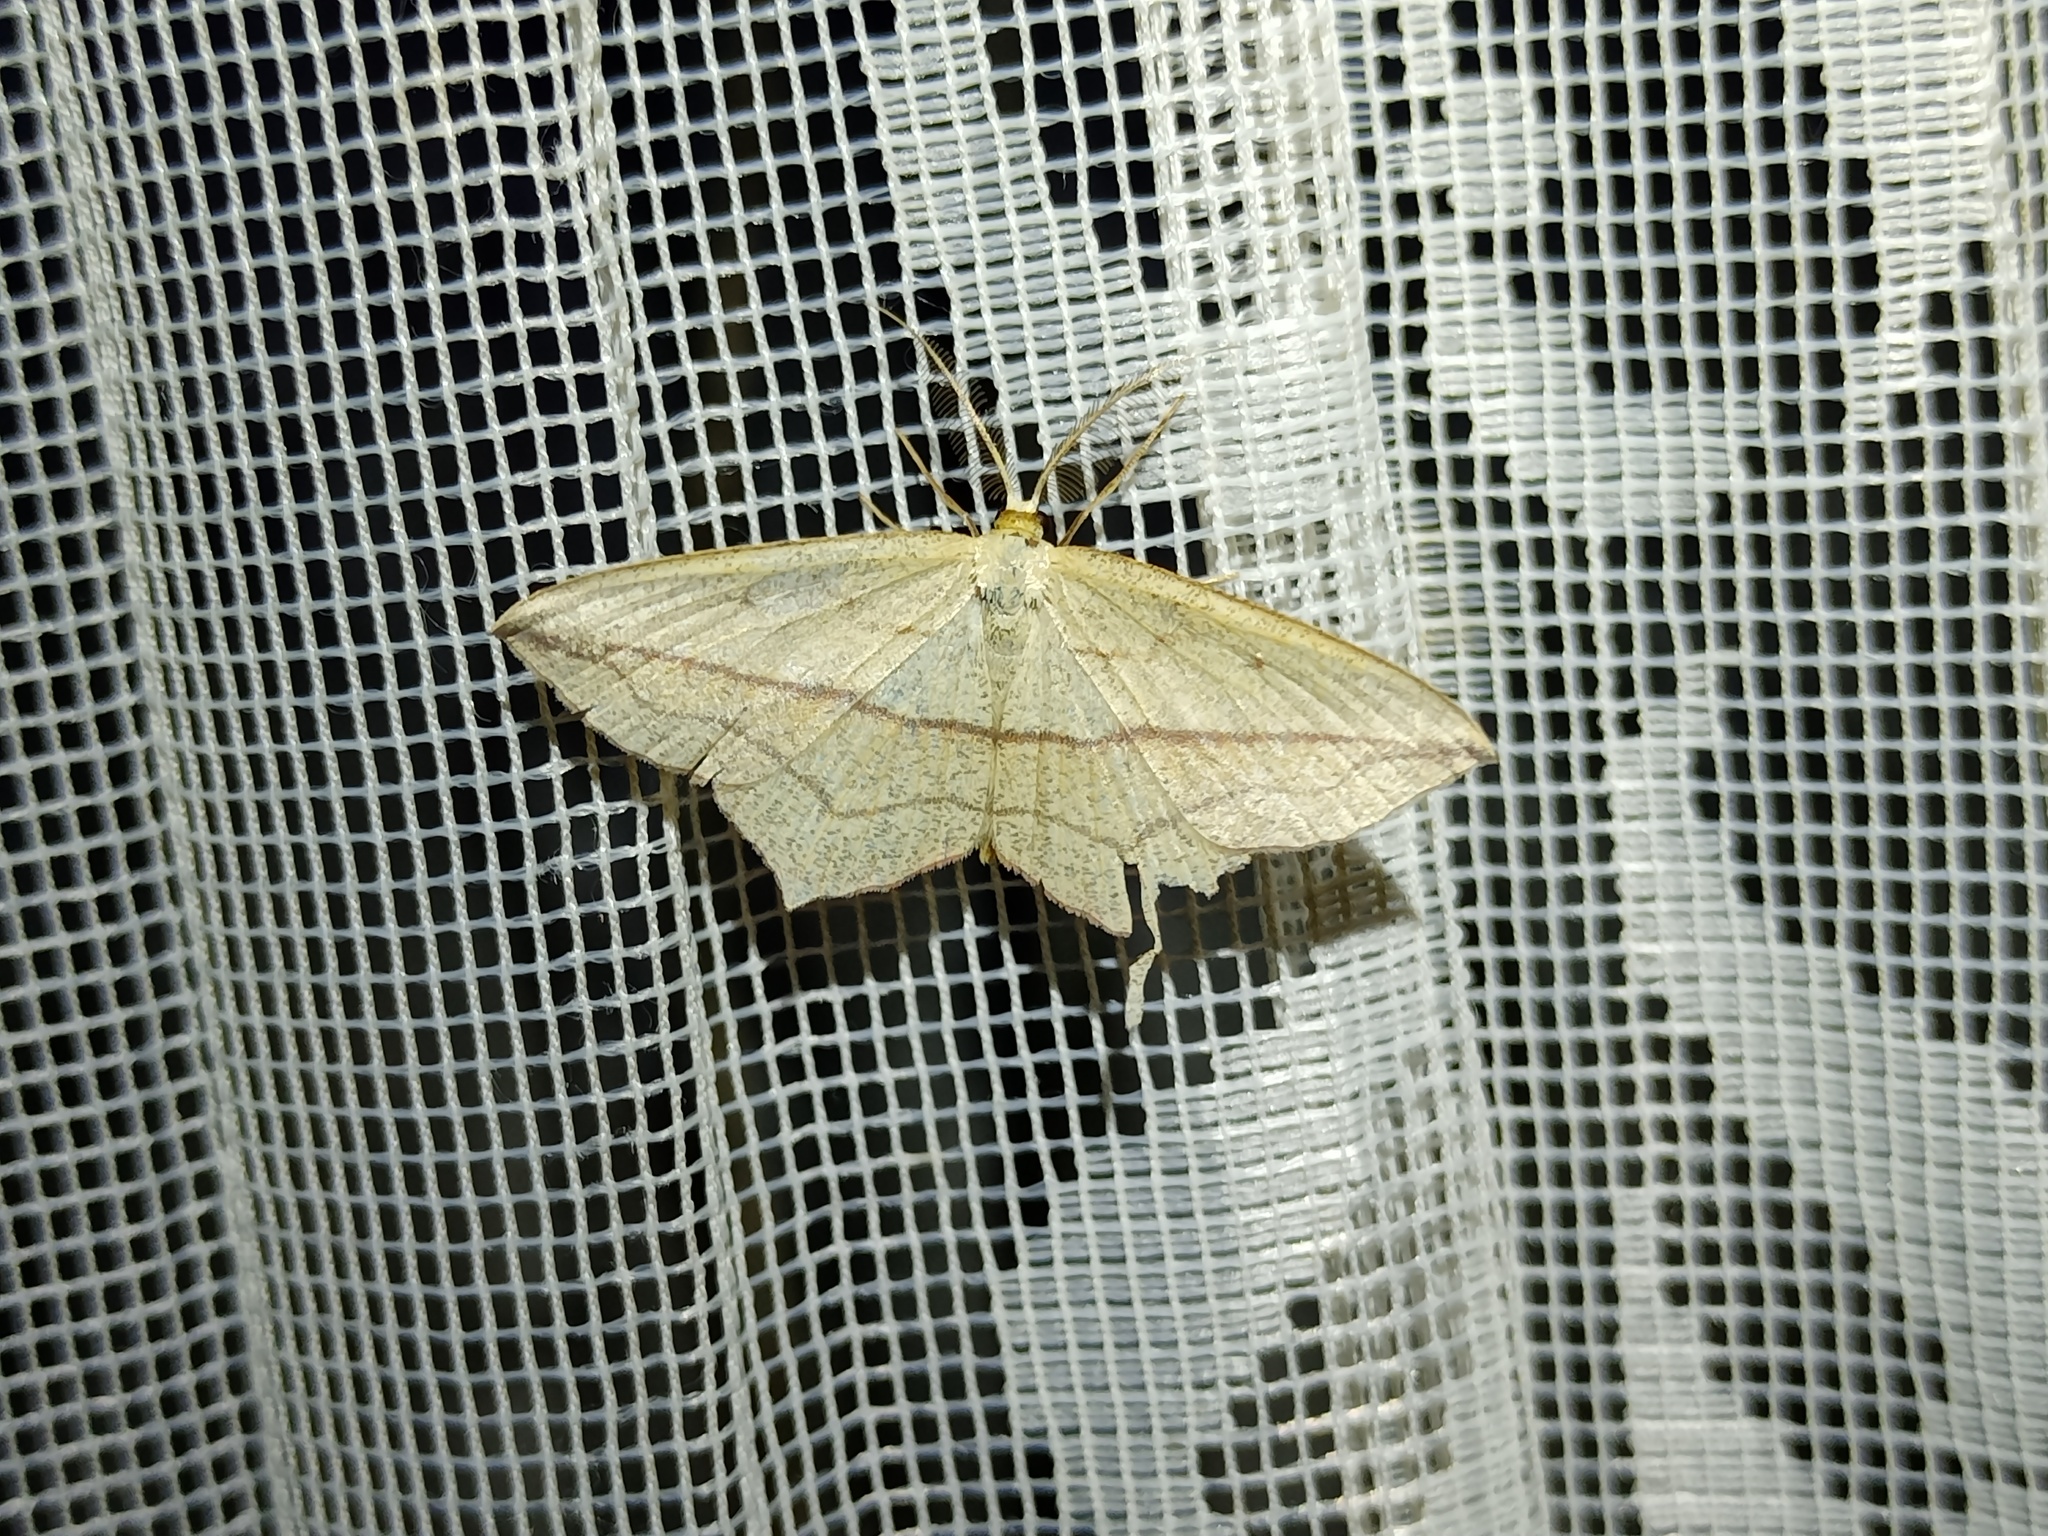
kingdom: Animalia
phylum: Arthropoda
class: Insecta
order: Lepidoptera
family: Geometridae
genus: Timandra
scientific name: Timandra comae
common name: Blood-vein
